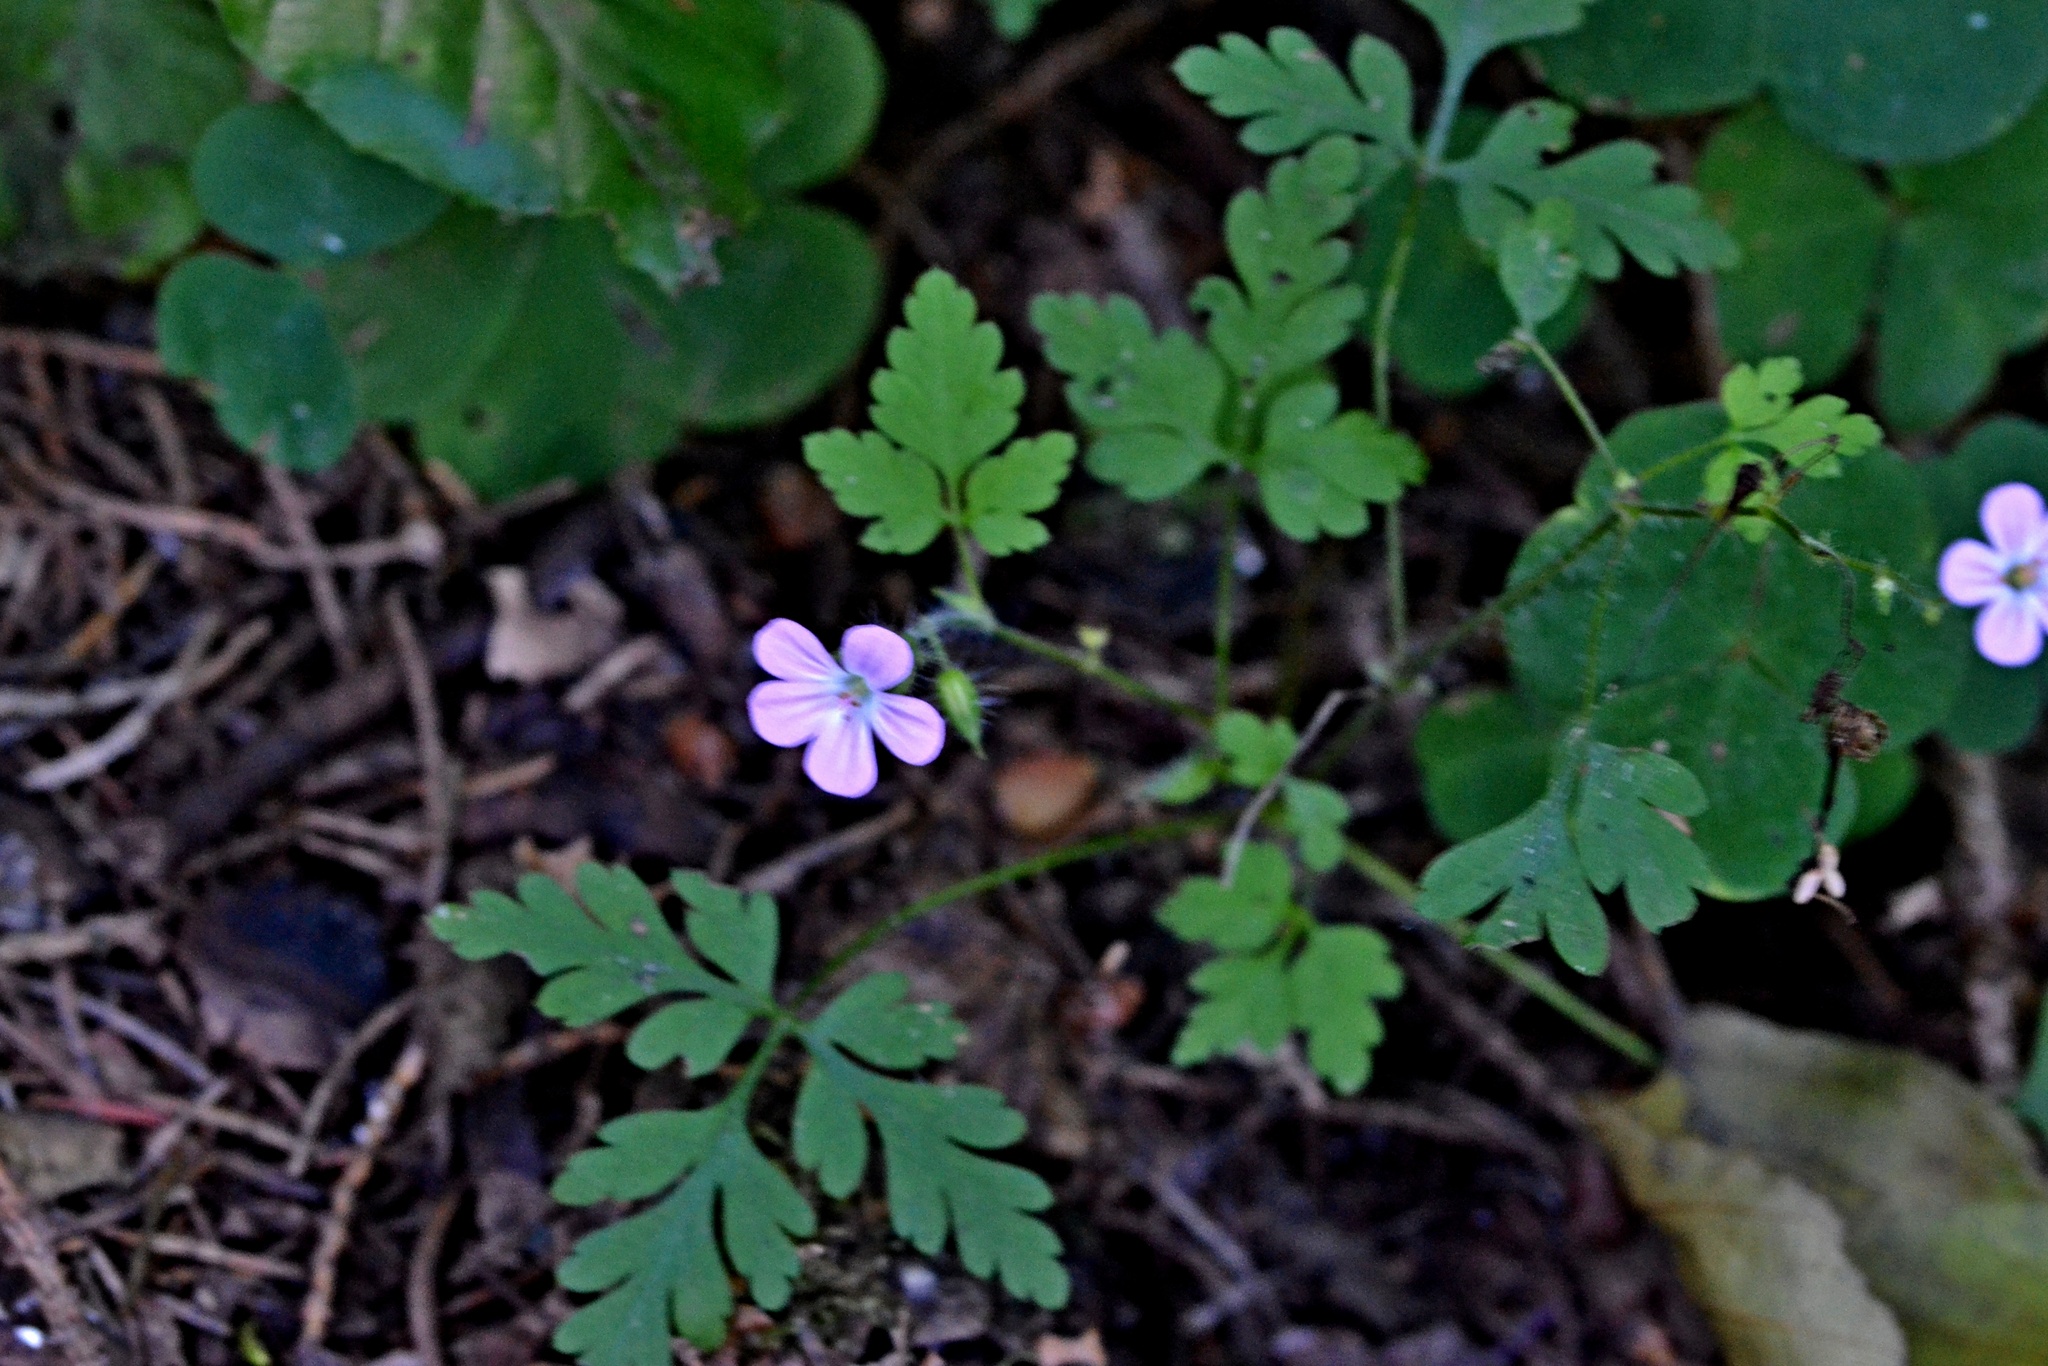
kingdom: Plantae
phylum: Tracheophyta
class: Magnoliopsida
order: Geraniales
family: Geraniaceae
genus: Geranium
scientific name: Geranium robertianum
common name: Herb-robert
